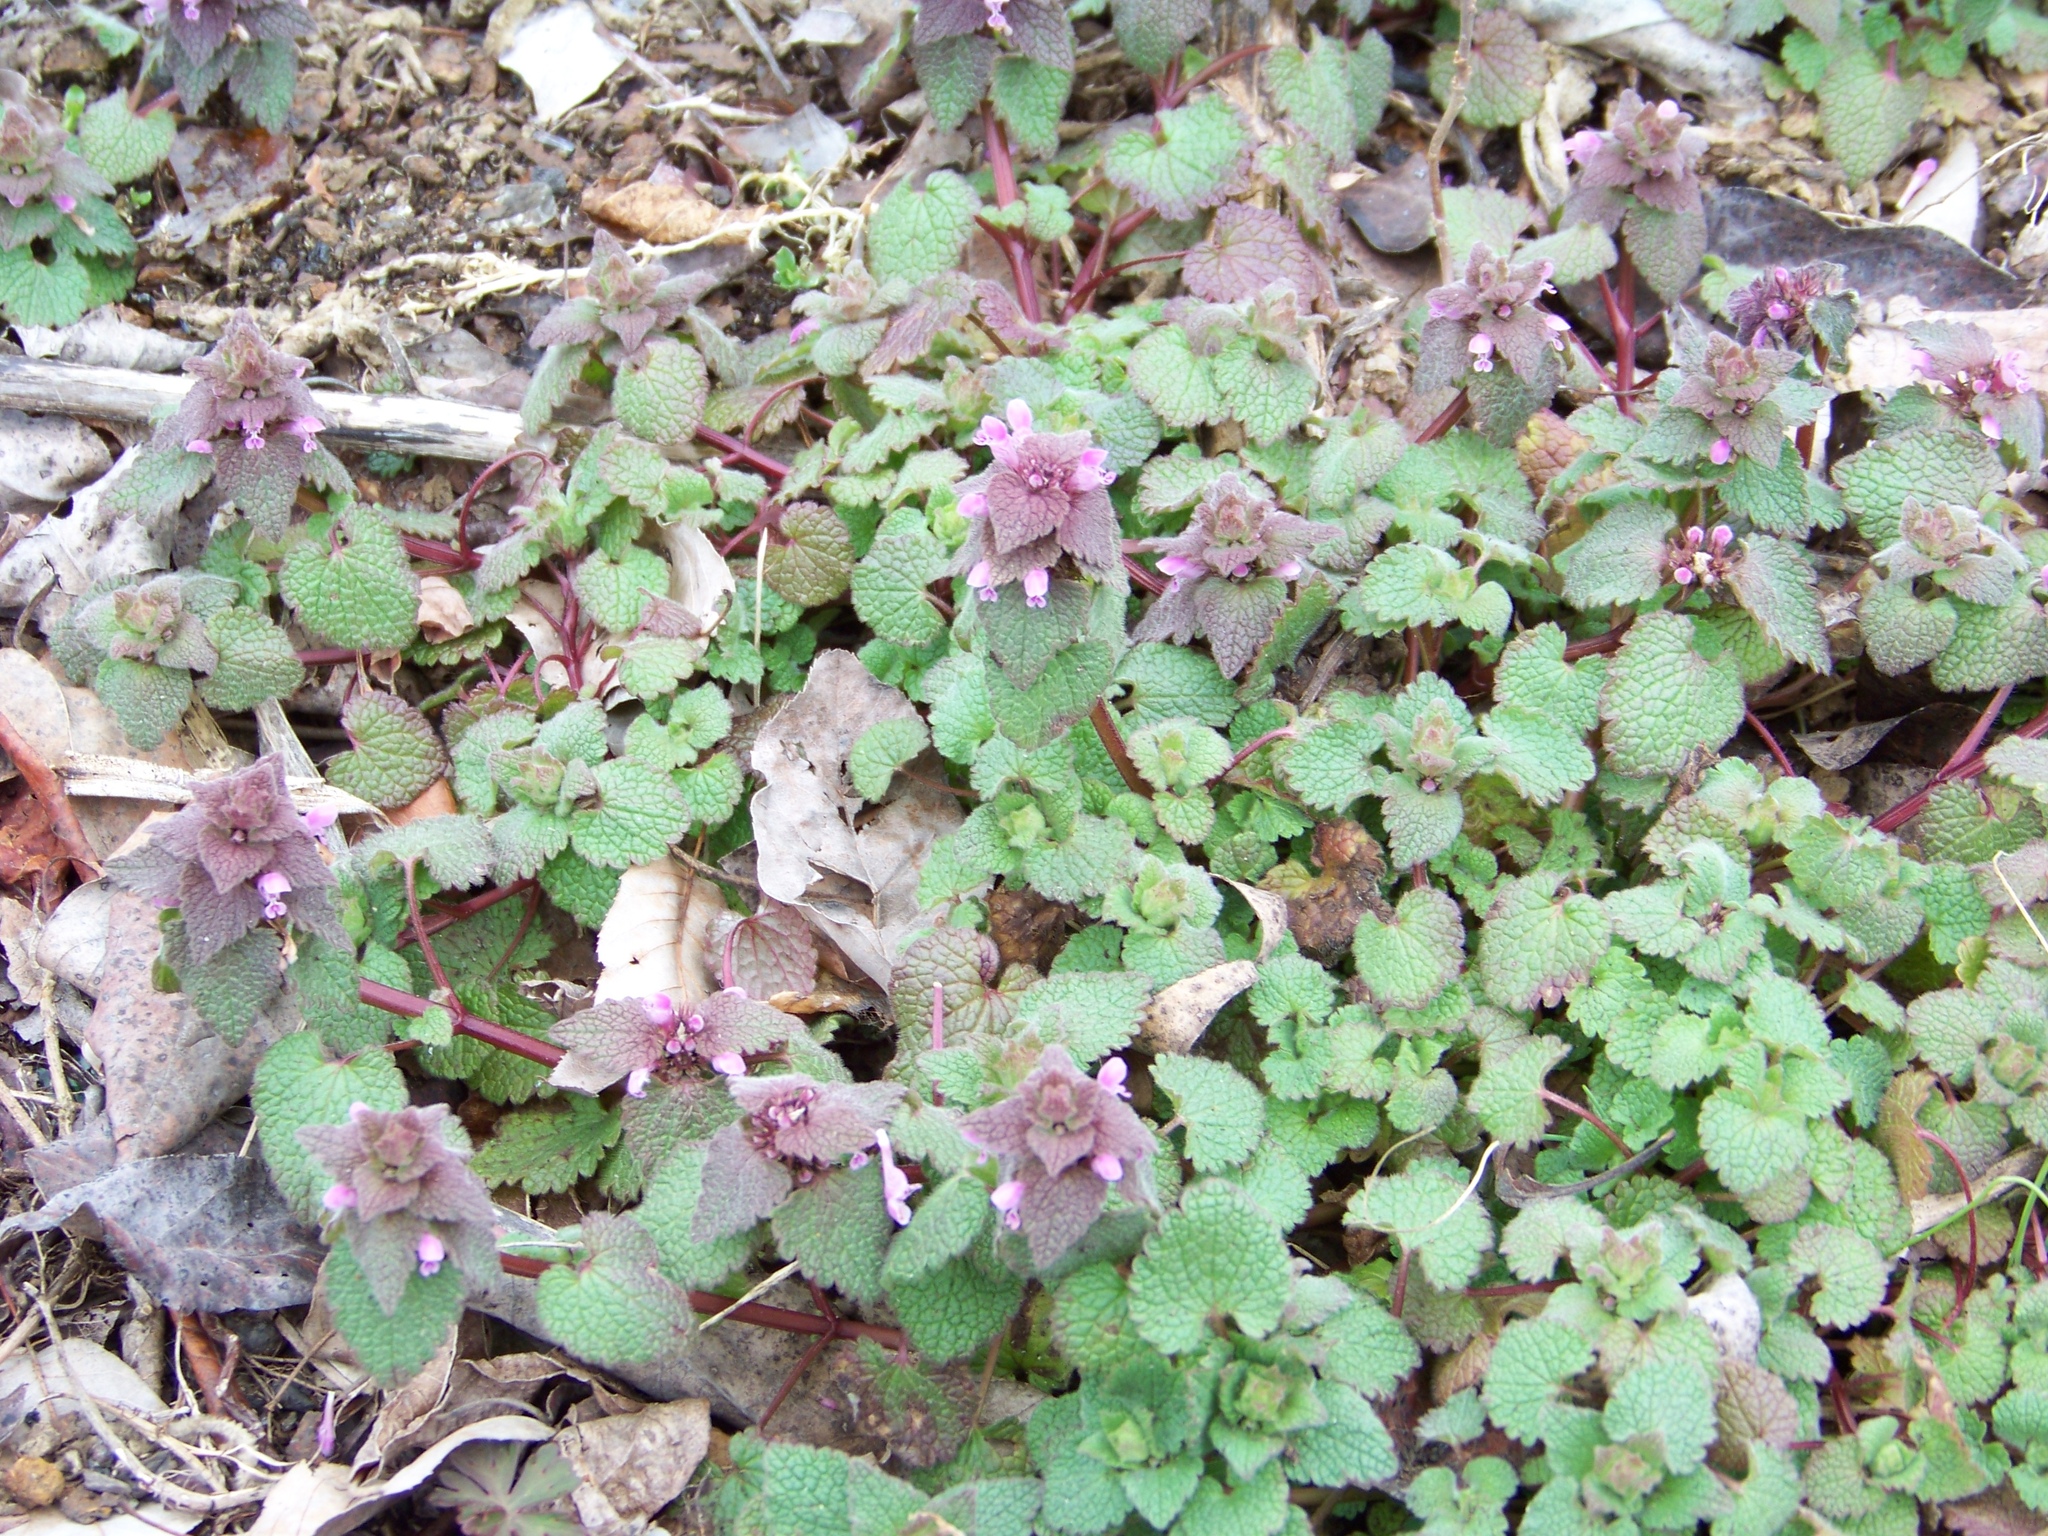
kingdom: Plantae
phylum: Tracheophyta
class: Magnoliopsida
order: Lamiales
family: Lamiaceae
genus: Lamium
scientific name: Lamium purpureum
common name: Red dead-nettle
